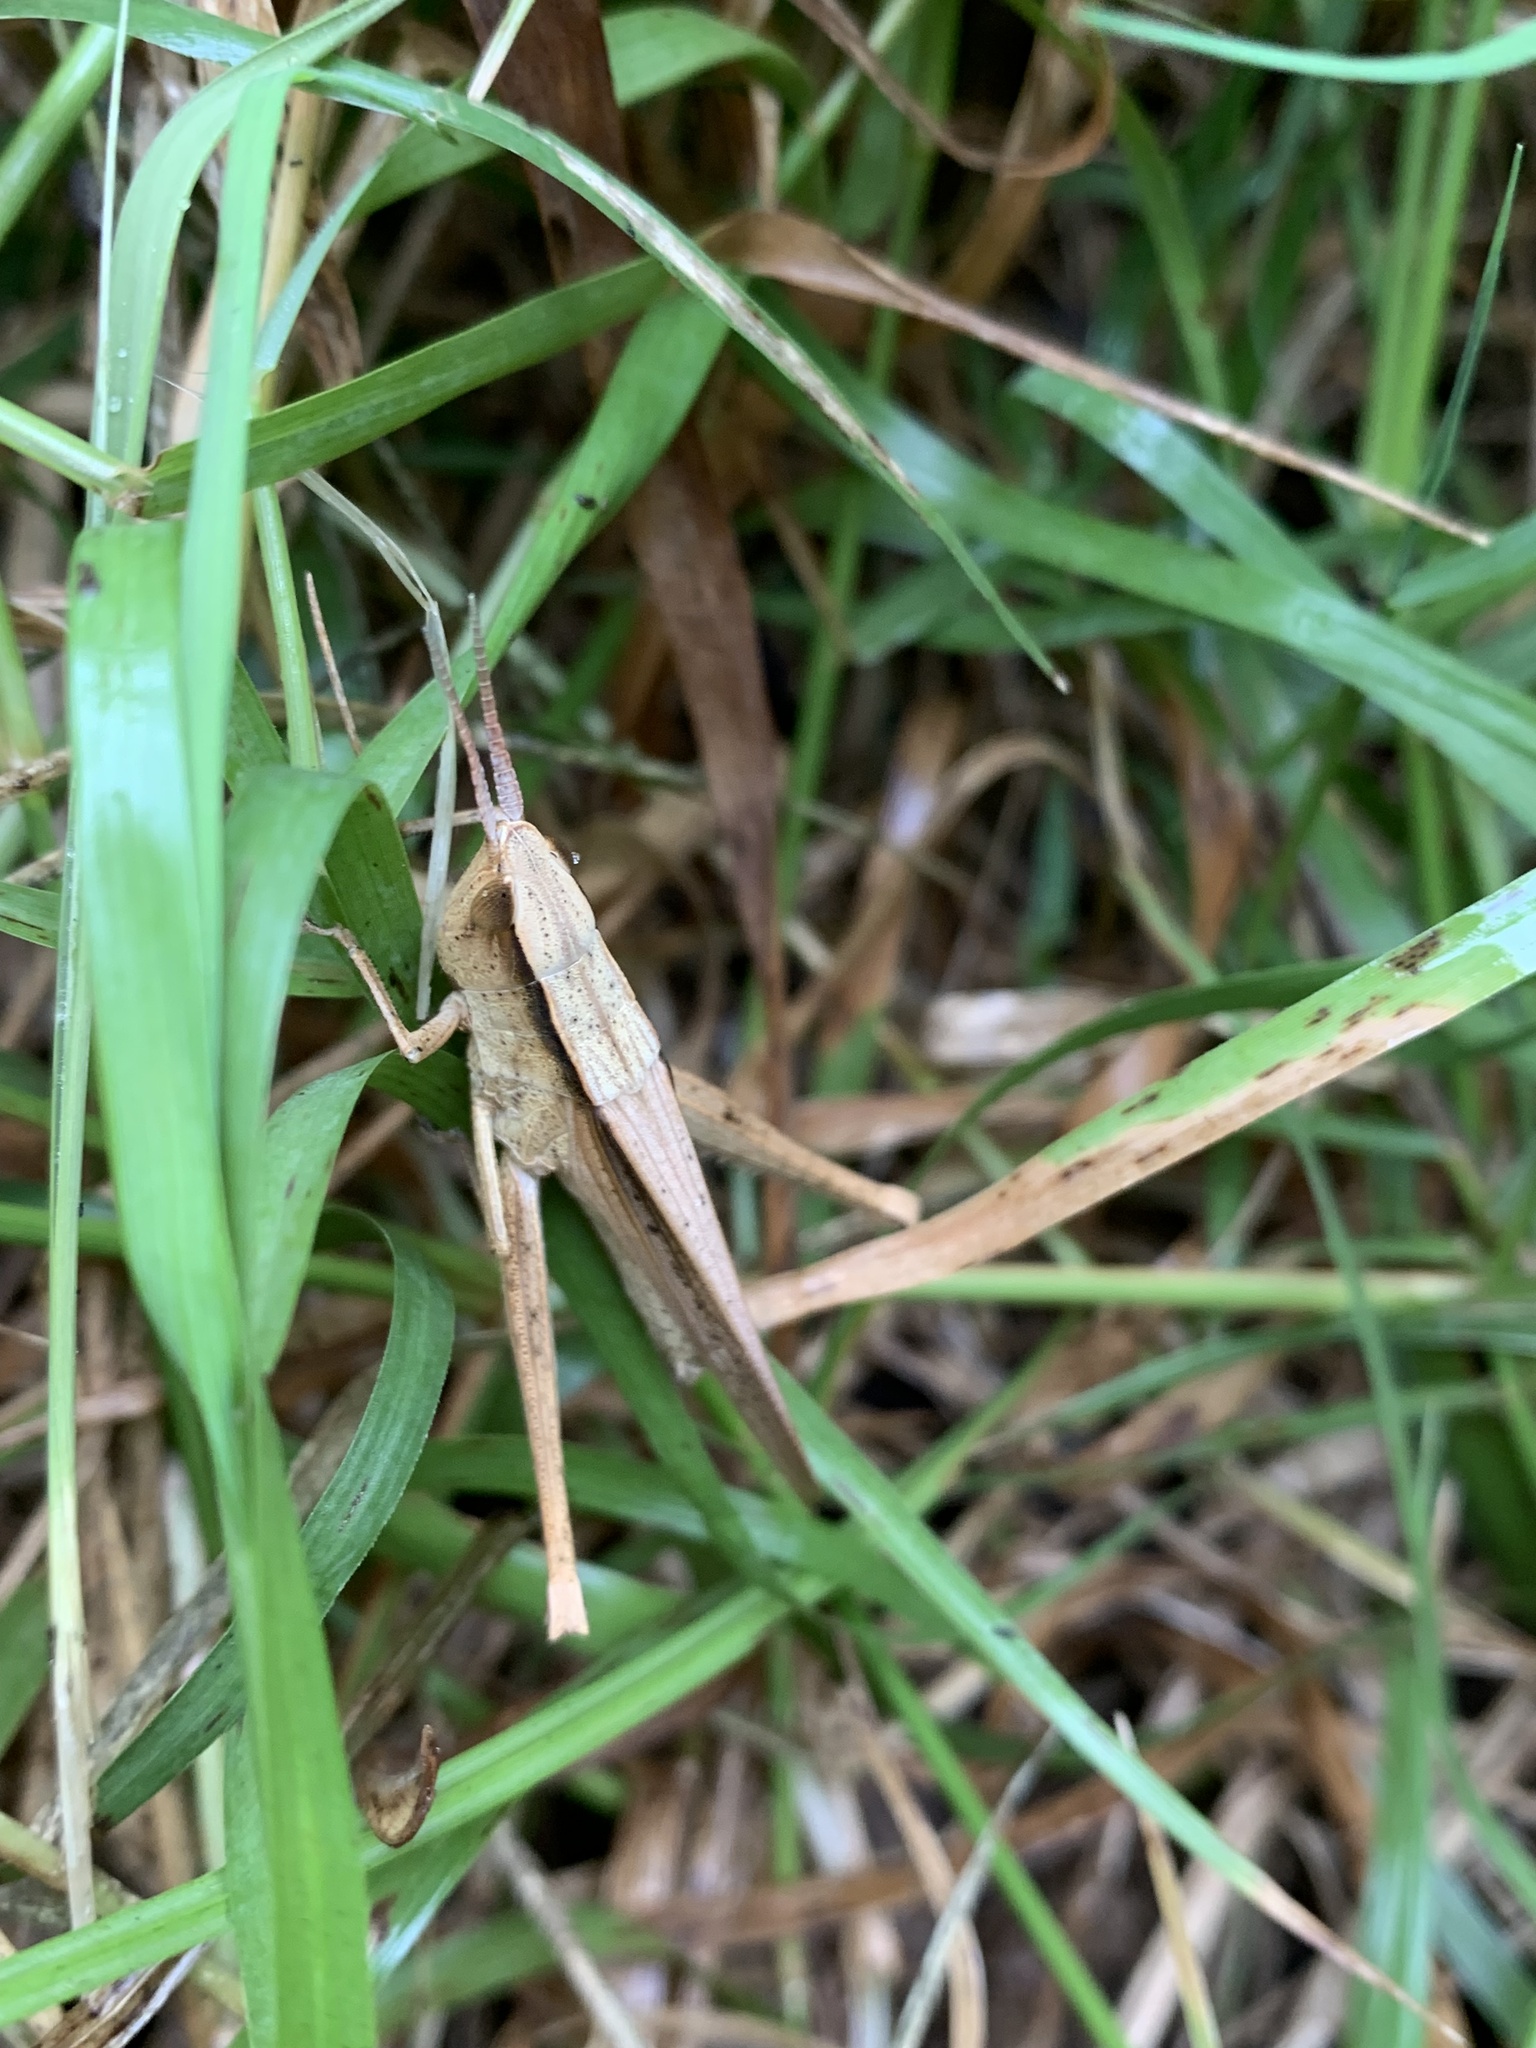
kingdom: Animalia
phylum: Arthropoda
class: Insecta
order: Orthoptera
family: Acrididae
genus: Metaleptea
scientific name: Metaleptea adspersa
